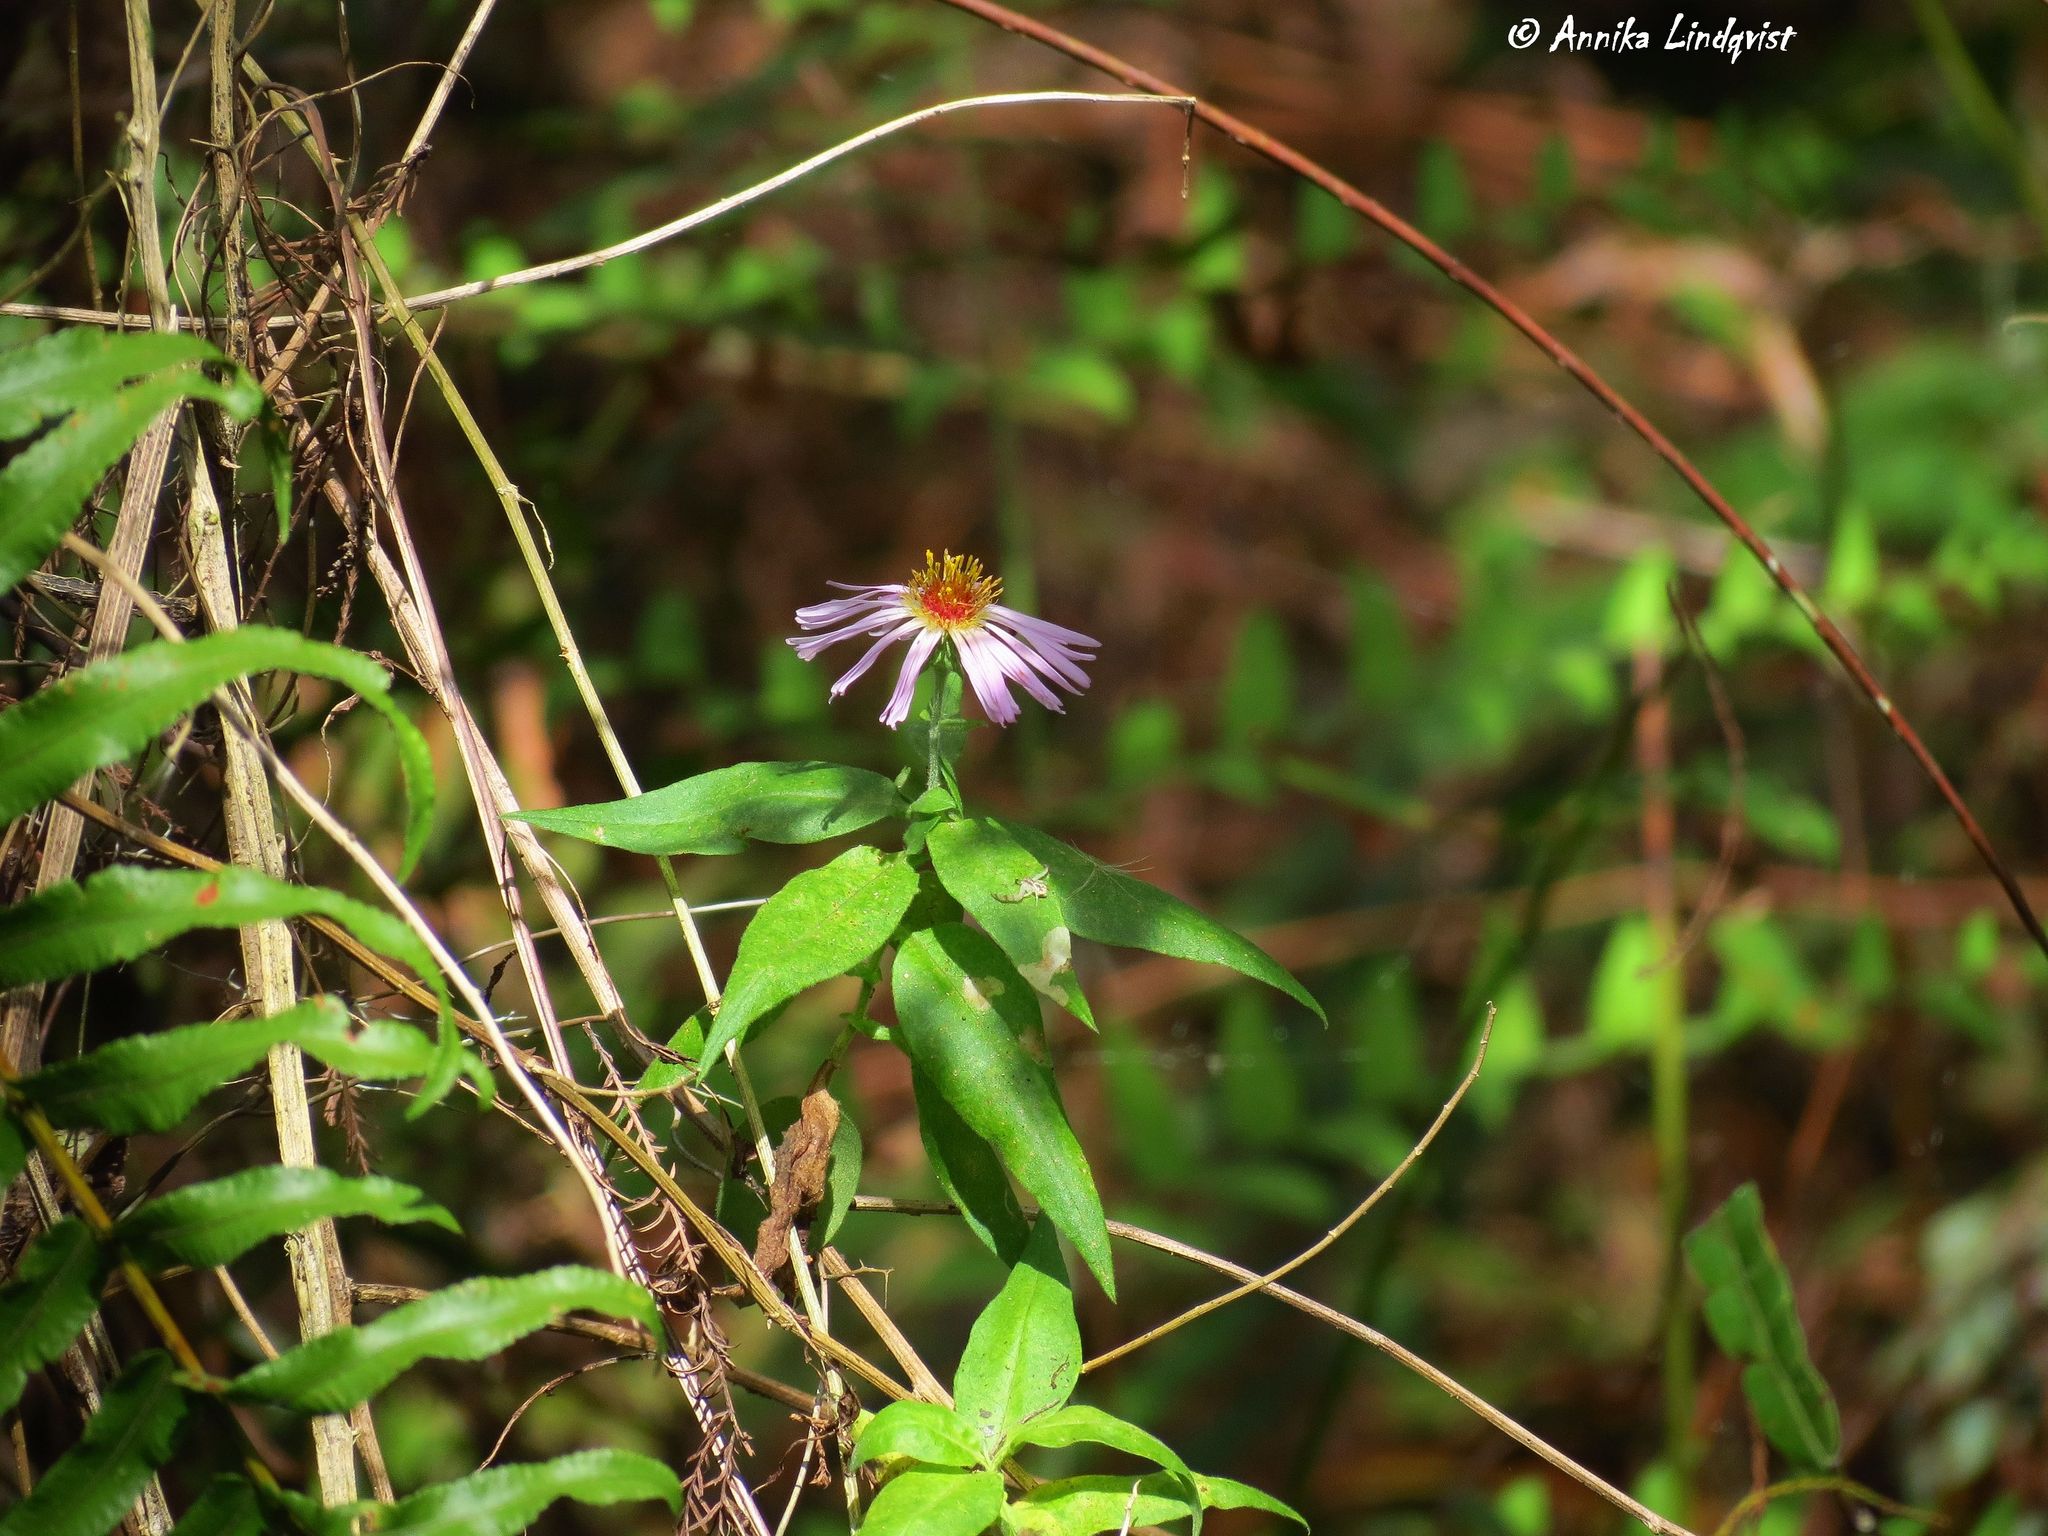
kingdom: Plantae
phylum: Tracheophyta
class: Magnoliopsida
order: Asterales
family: Asteraceae
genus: Ampelaster
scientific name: Ampelaster carolinianus
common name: Climbing aster
